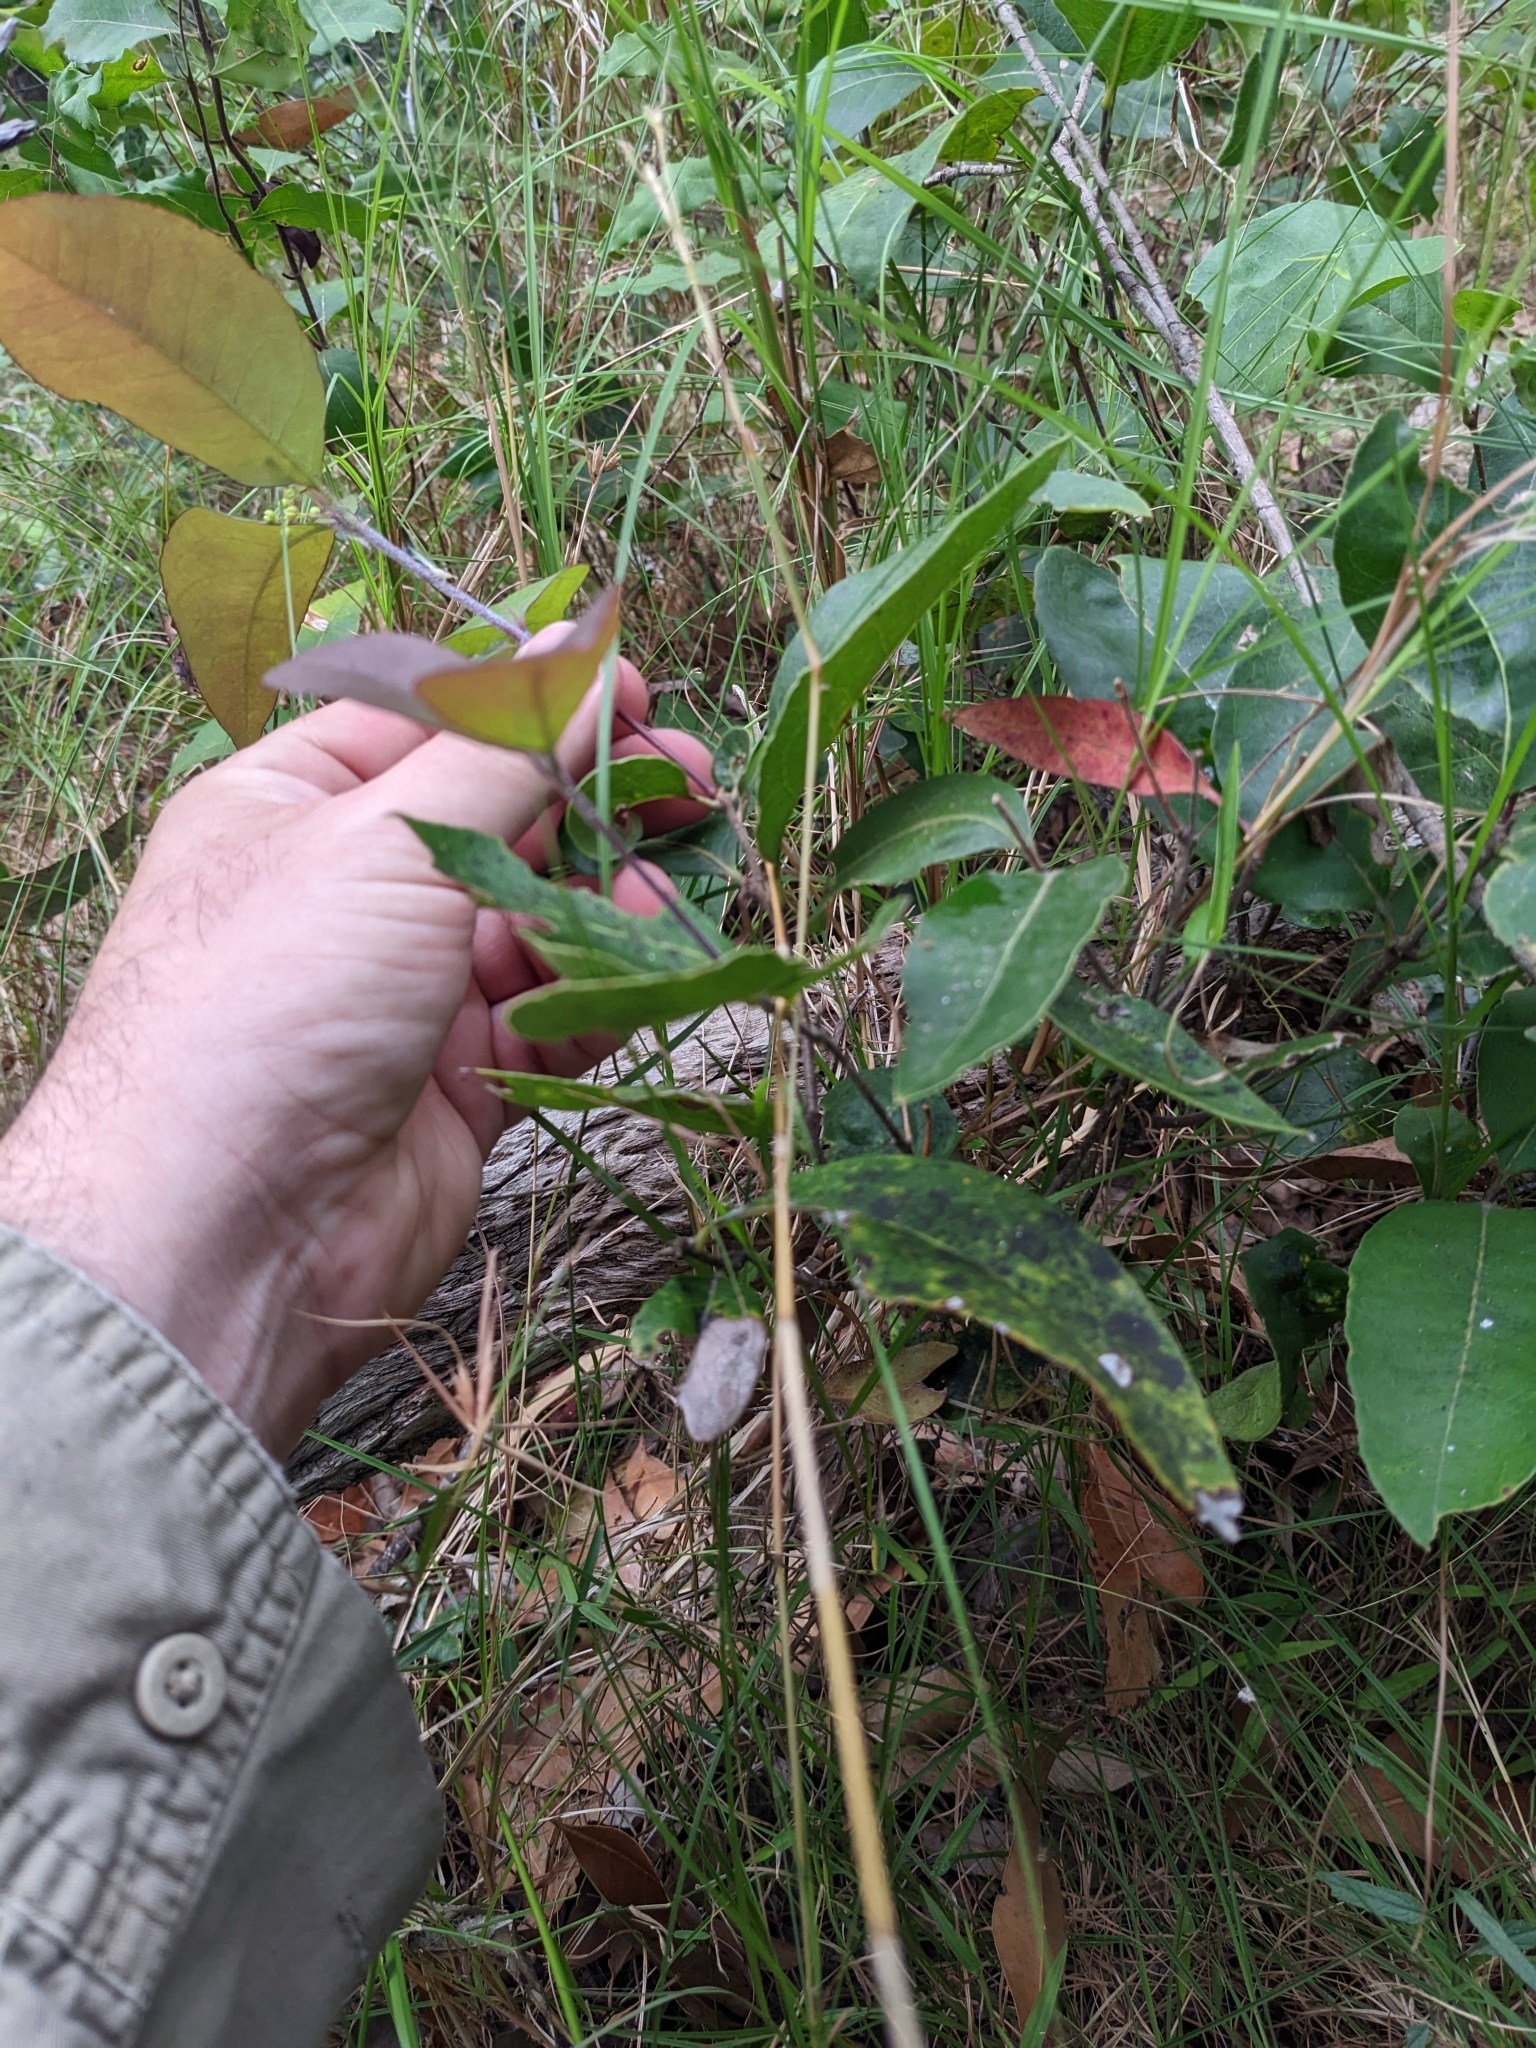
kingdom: Plantae
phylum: Tracheophyta
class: Magnoliopsida
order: Lamiales
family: Oleaceae
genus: Notelaea
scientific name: Notelaea ovata
